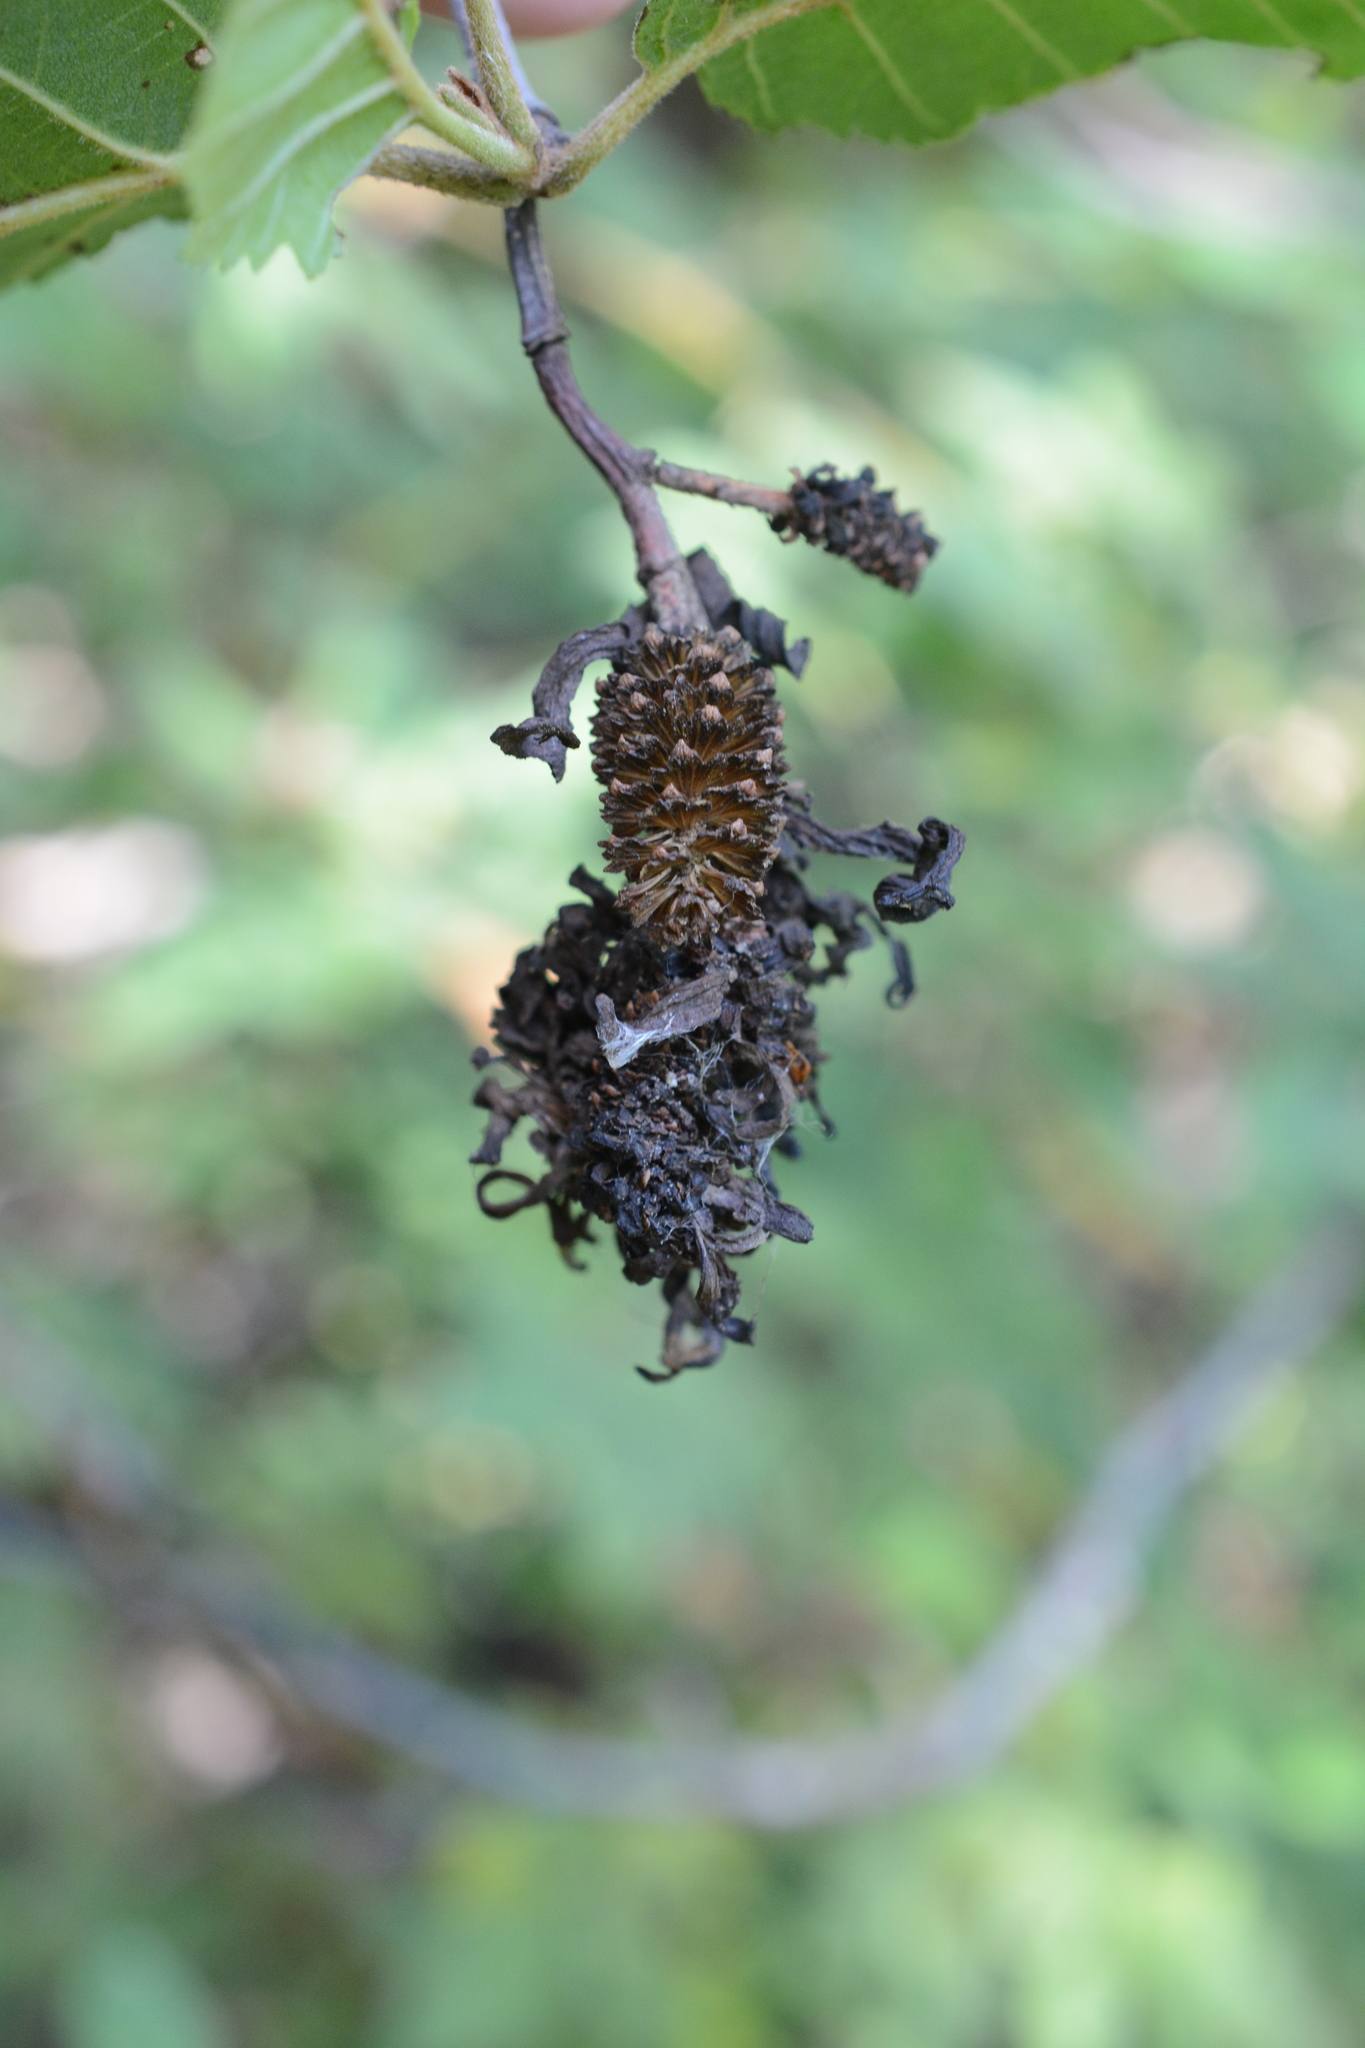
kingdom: Fungi
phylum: Ascomycota
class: Taphrinomycetes
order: Taphrinales
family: Taphrinaceae
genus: Taphrina
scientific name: Taphrina occidentalis
